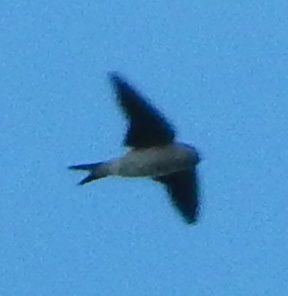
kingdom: Animalia
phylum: Chordata
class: Aves
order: Passeriformes
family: Hirundinidae
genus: Delichon
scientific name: Delichon urbicum
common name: Common house martin
